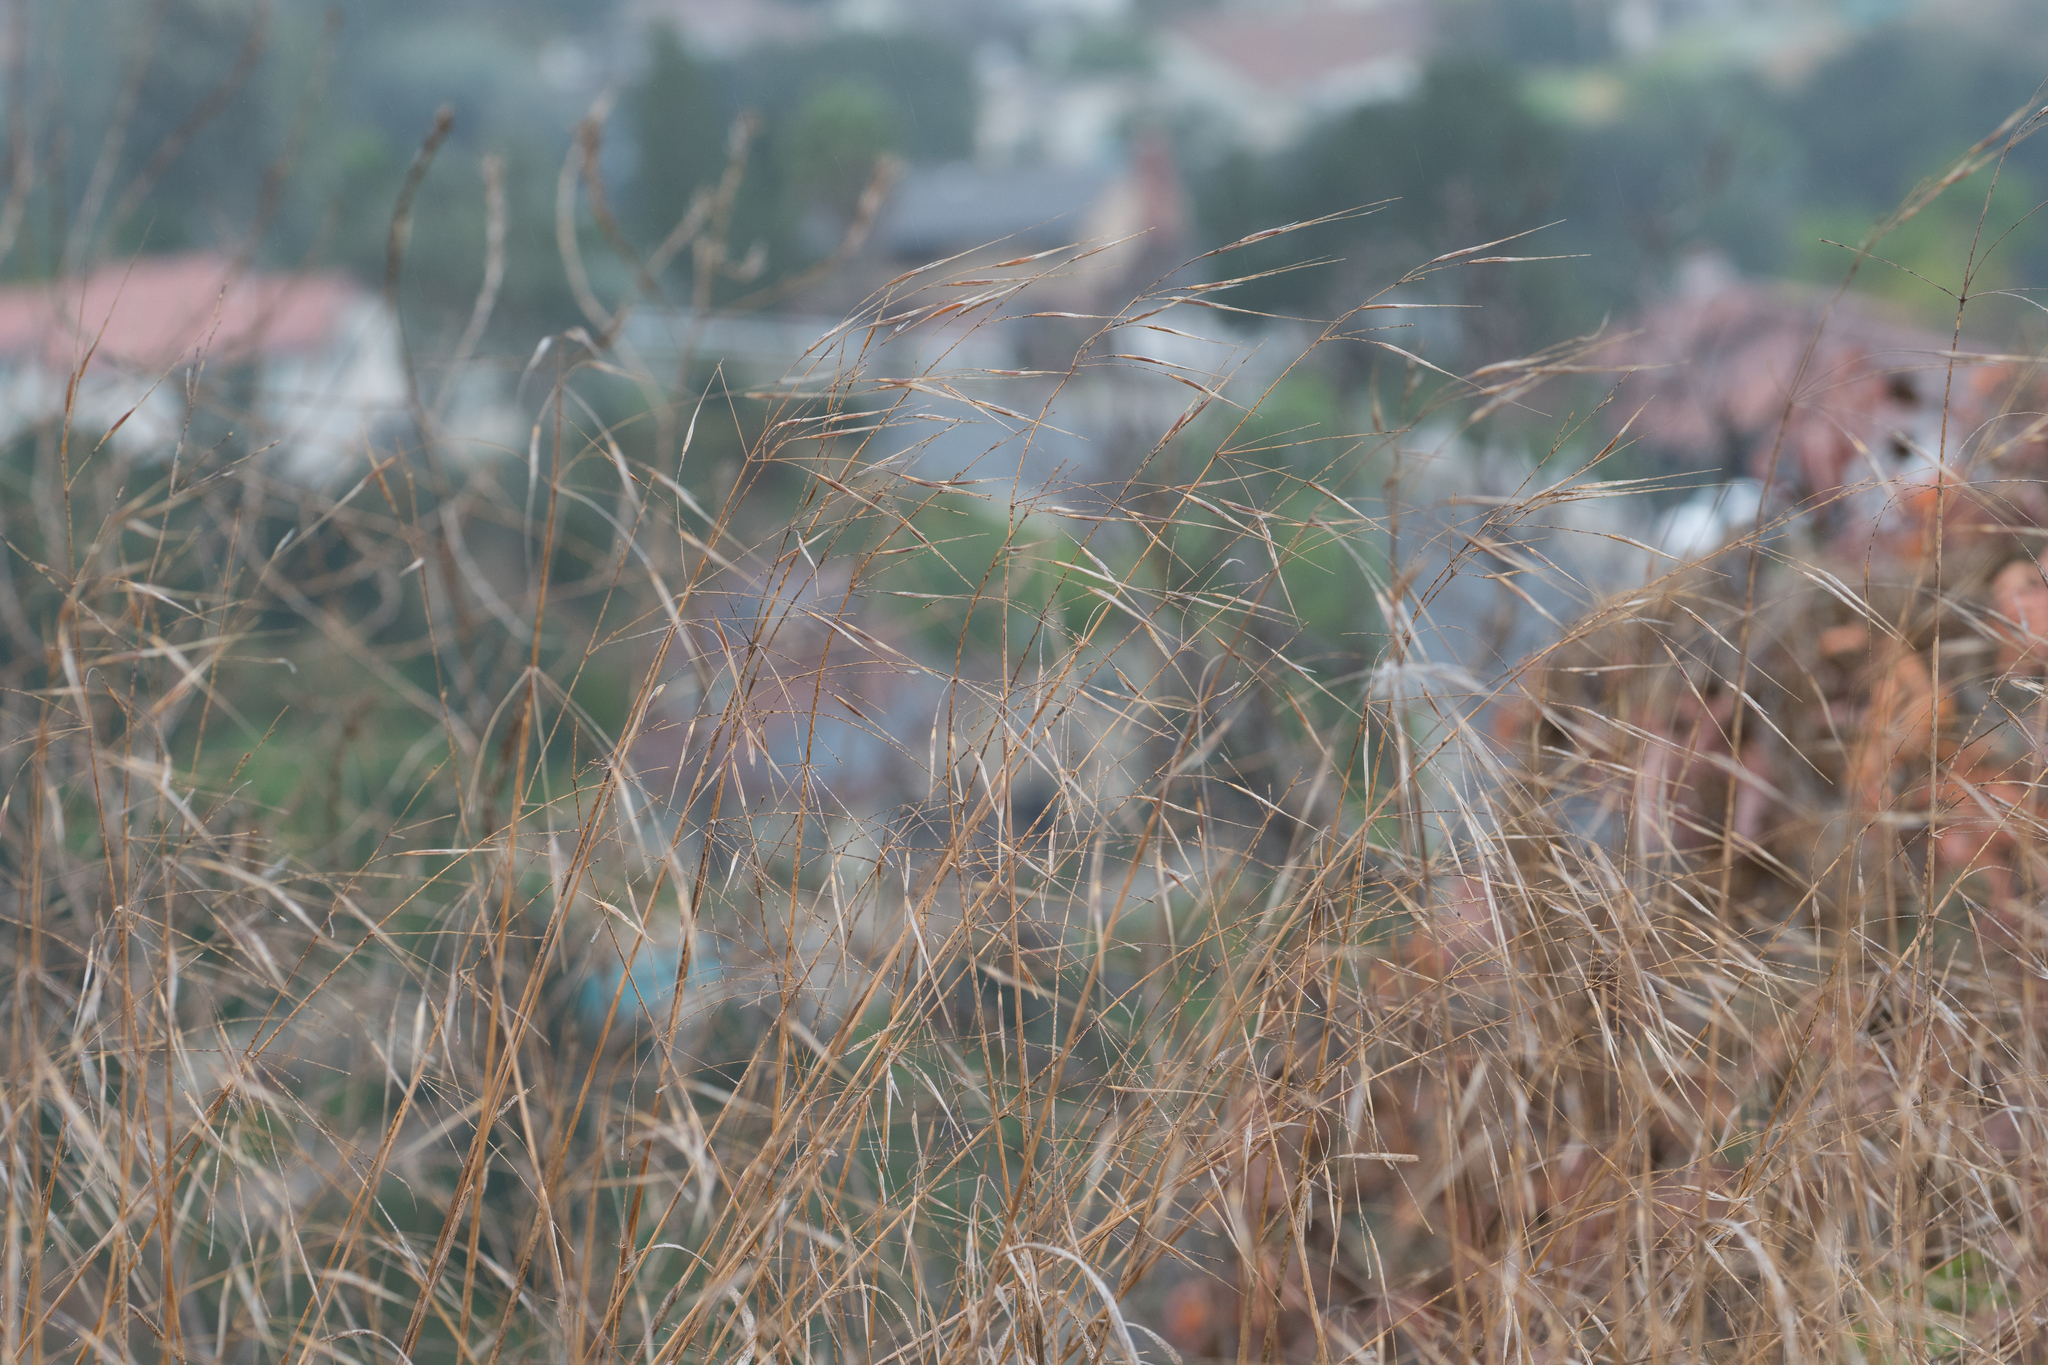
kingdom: Plantae
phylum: Tracheophyta
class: Liliopsida
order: Poales
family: Poaceae
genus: Bromus
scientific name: Bromus diandrus
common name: Ripgut brome
